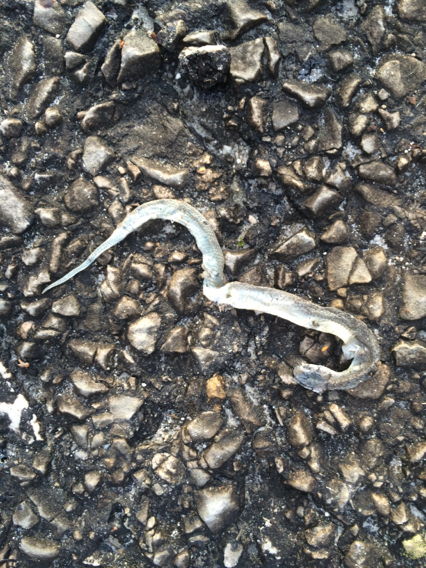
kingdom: Animalia
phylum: Chordata
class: Squamata
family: Colubridae
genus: Storeria
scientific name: Storeria dekayi
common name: (dekay’s) brown snake
